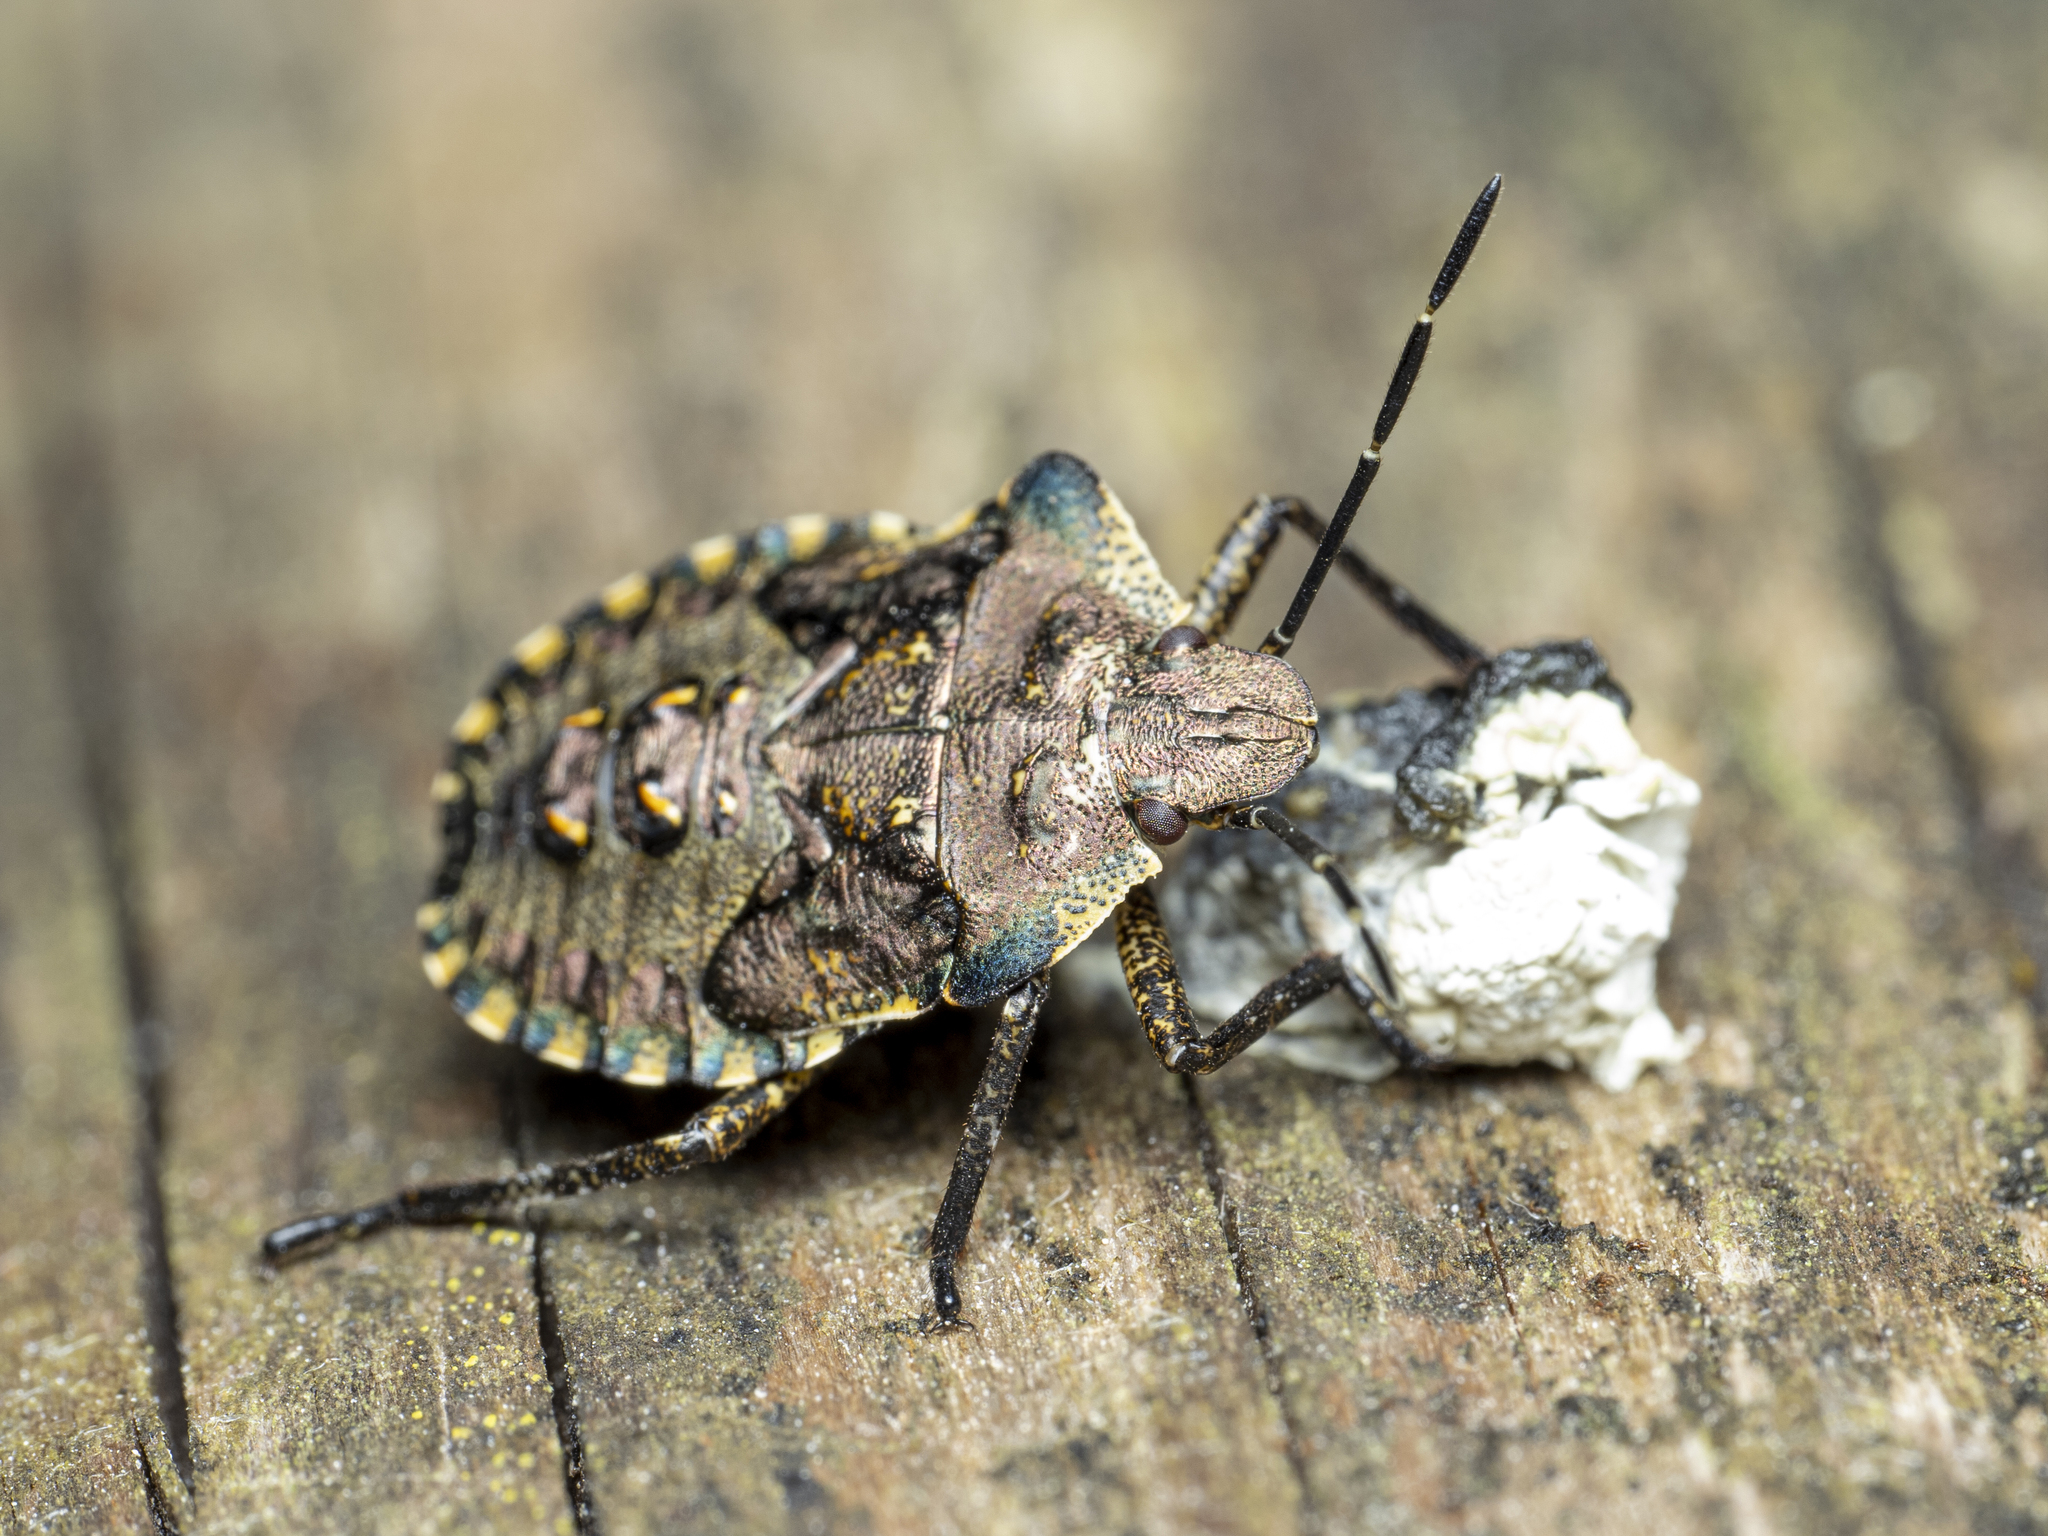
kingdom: Animalia
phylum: Arthropoda
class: Insecta
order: Hemiptera
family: Pentatomidae
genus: Pentatoma
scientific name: Pentatoma rufipes
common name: Forest bug
